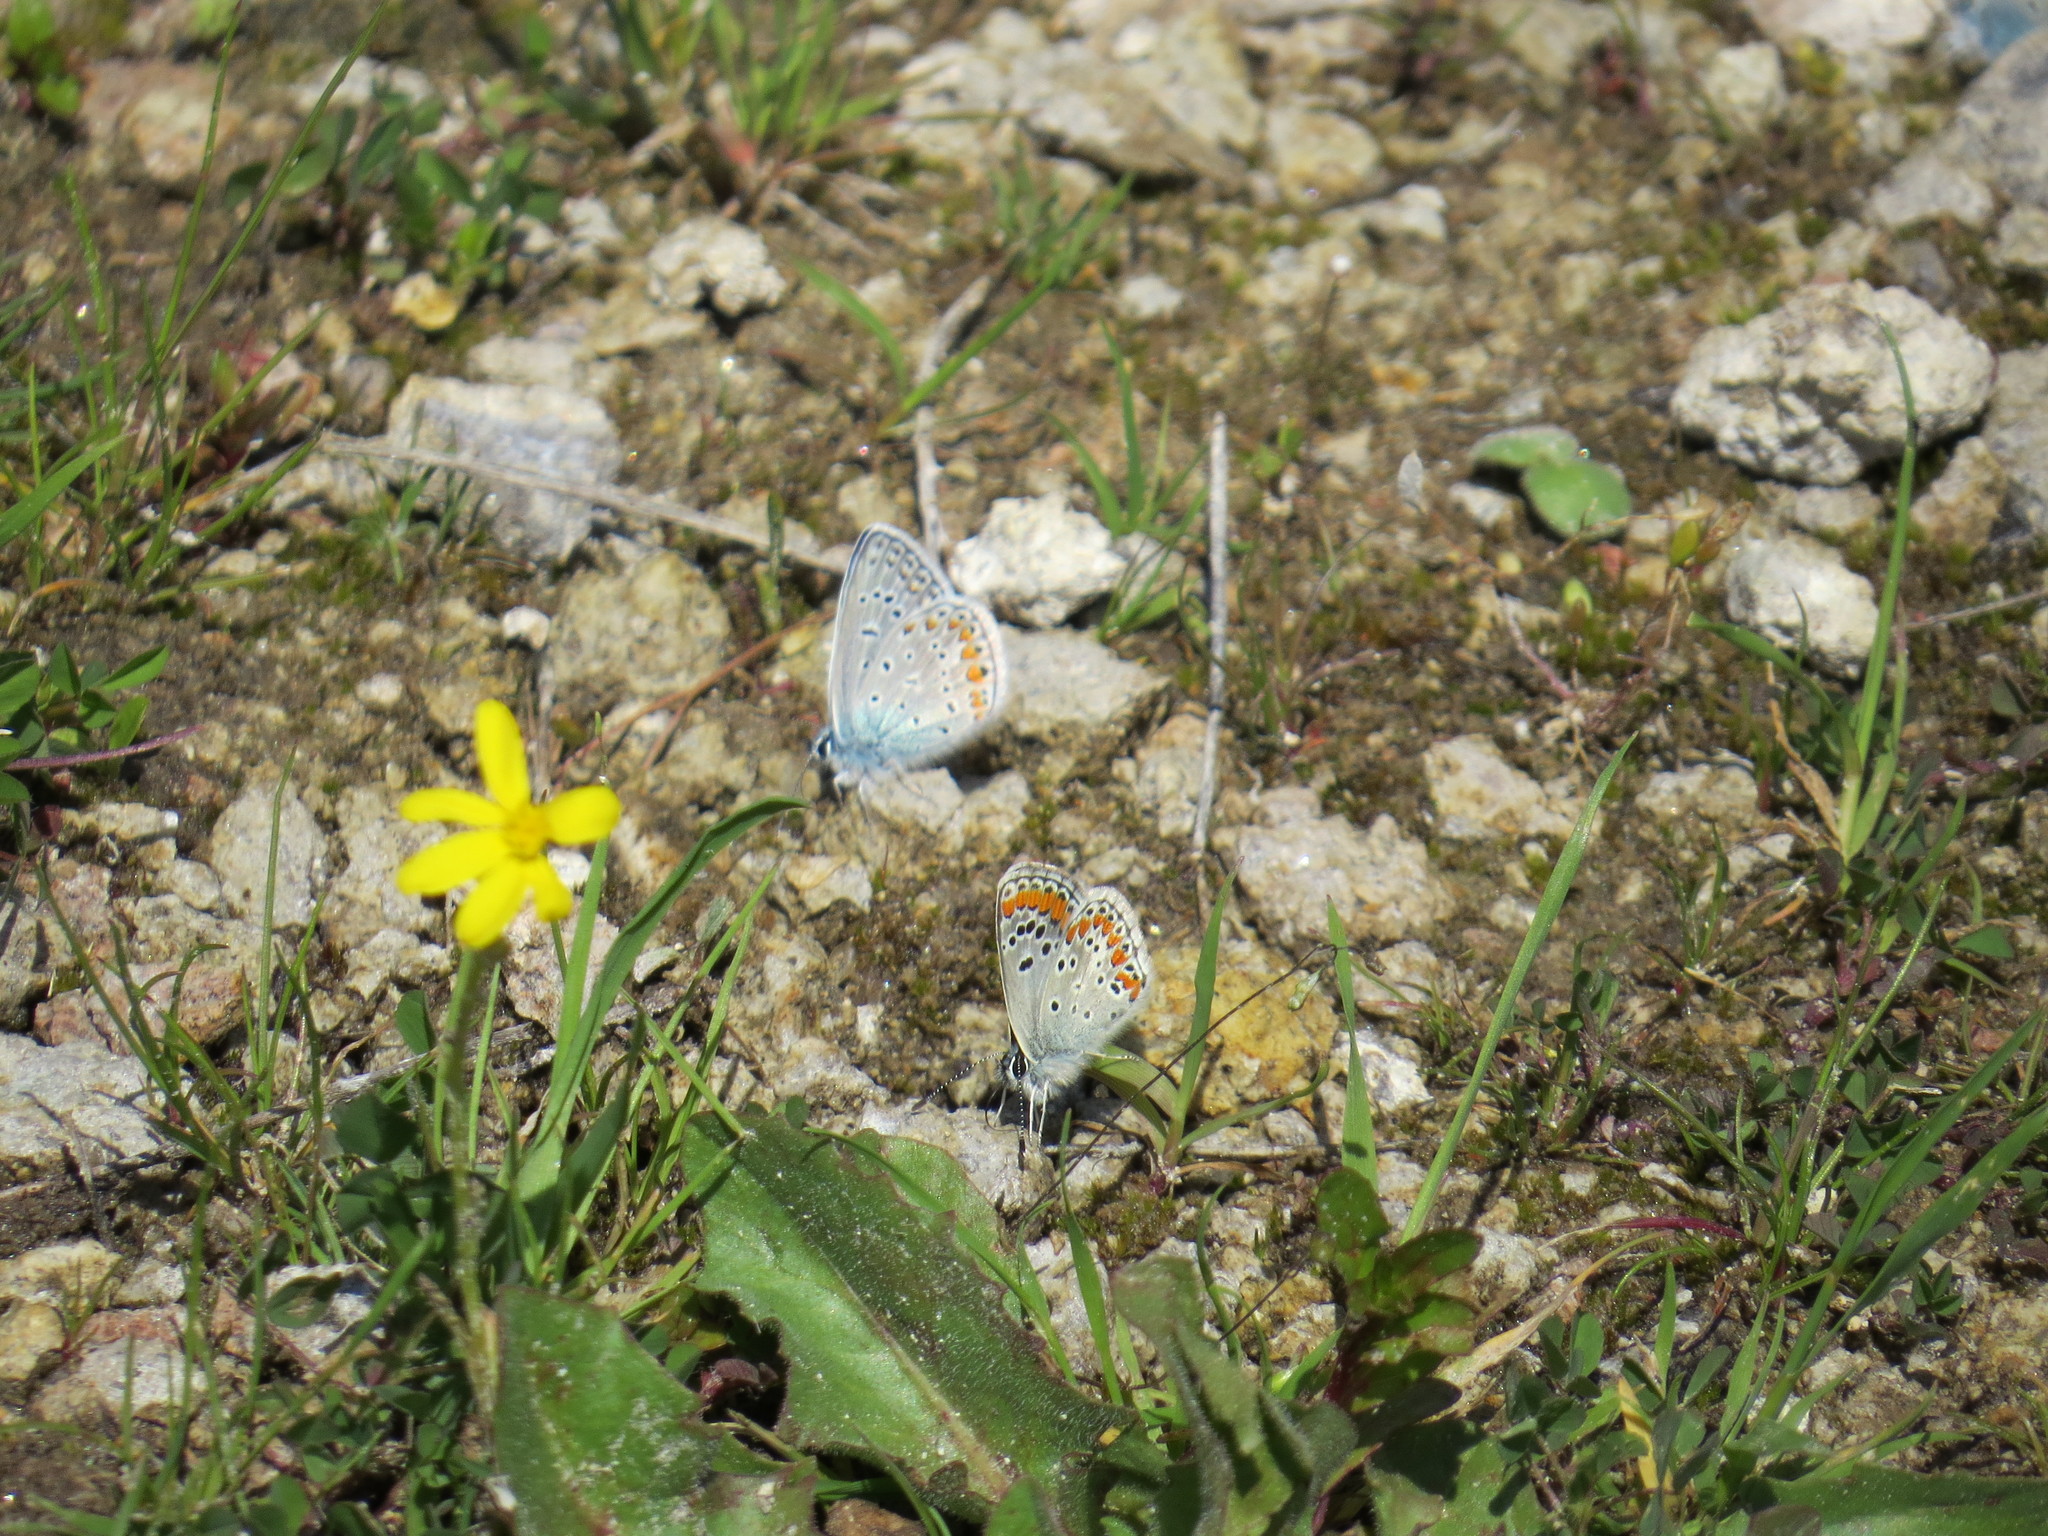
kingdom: Animalia
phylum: Arthropoda
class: Insecta
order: Lepidoptera
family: Lycaenidae
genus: Aricia
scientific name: Aricia agestis
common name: Brown argus
